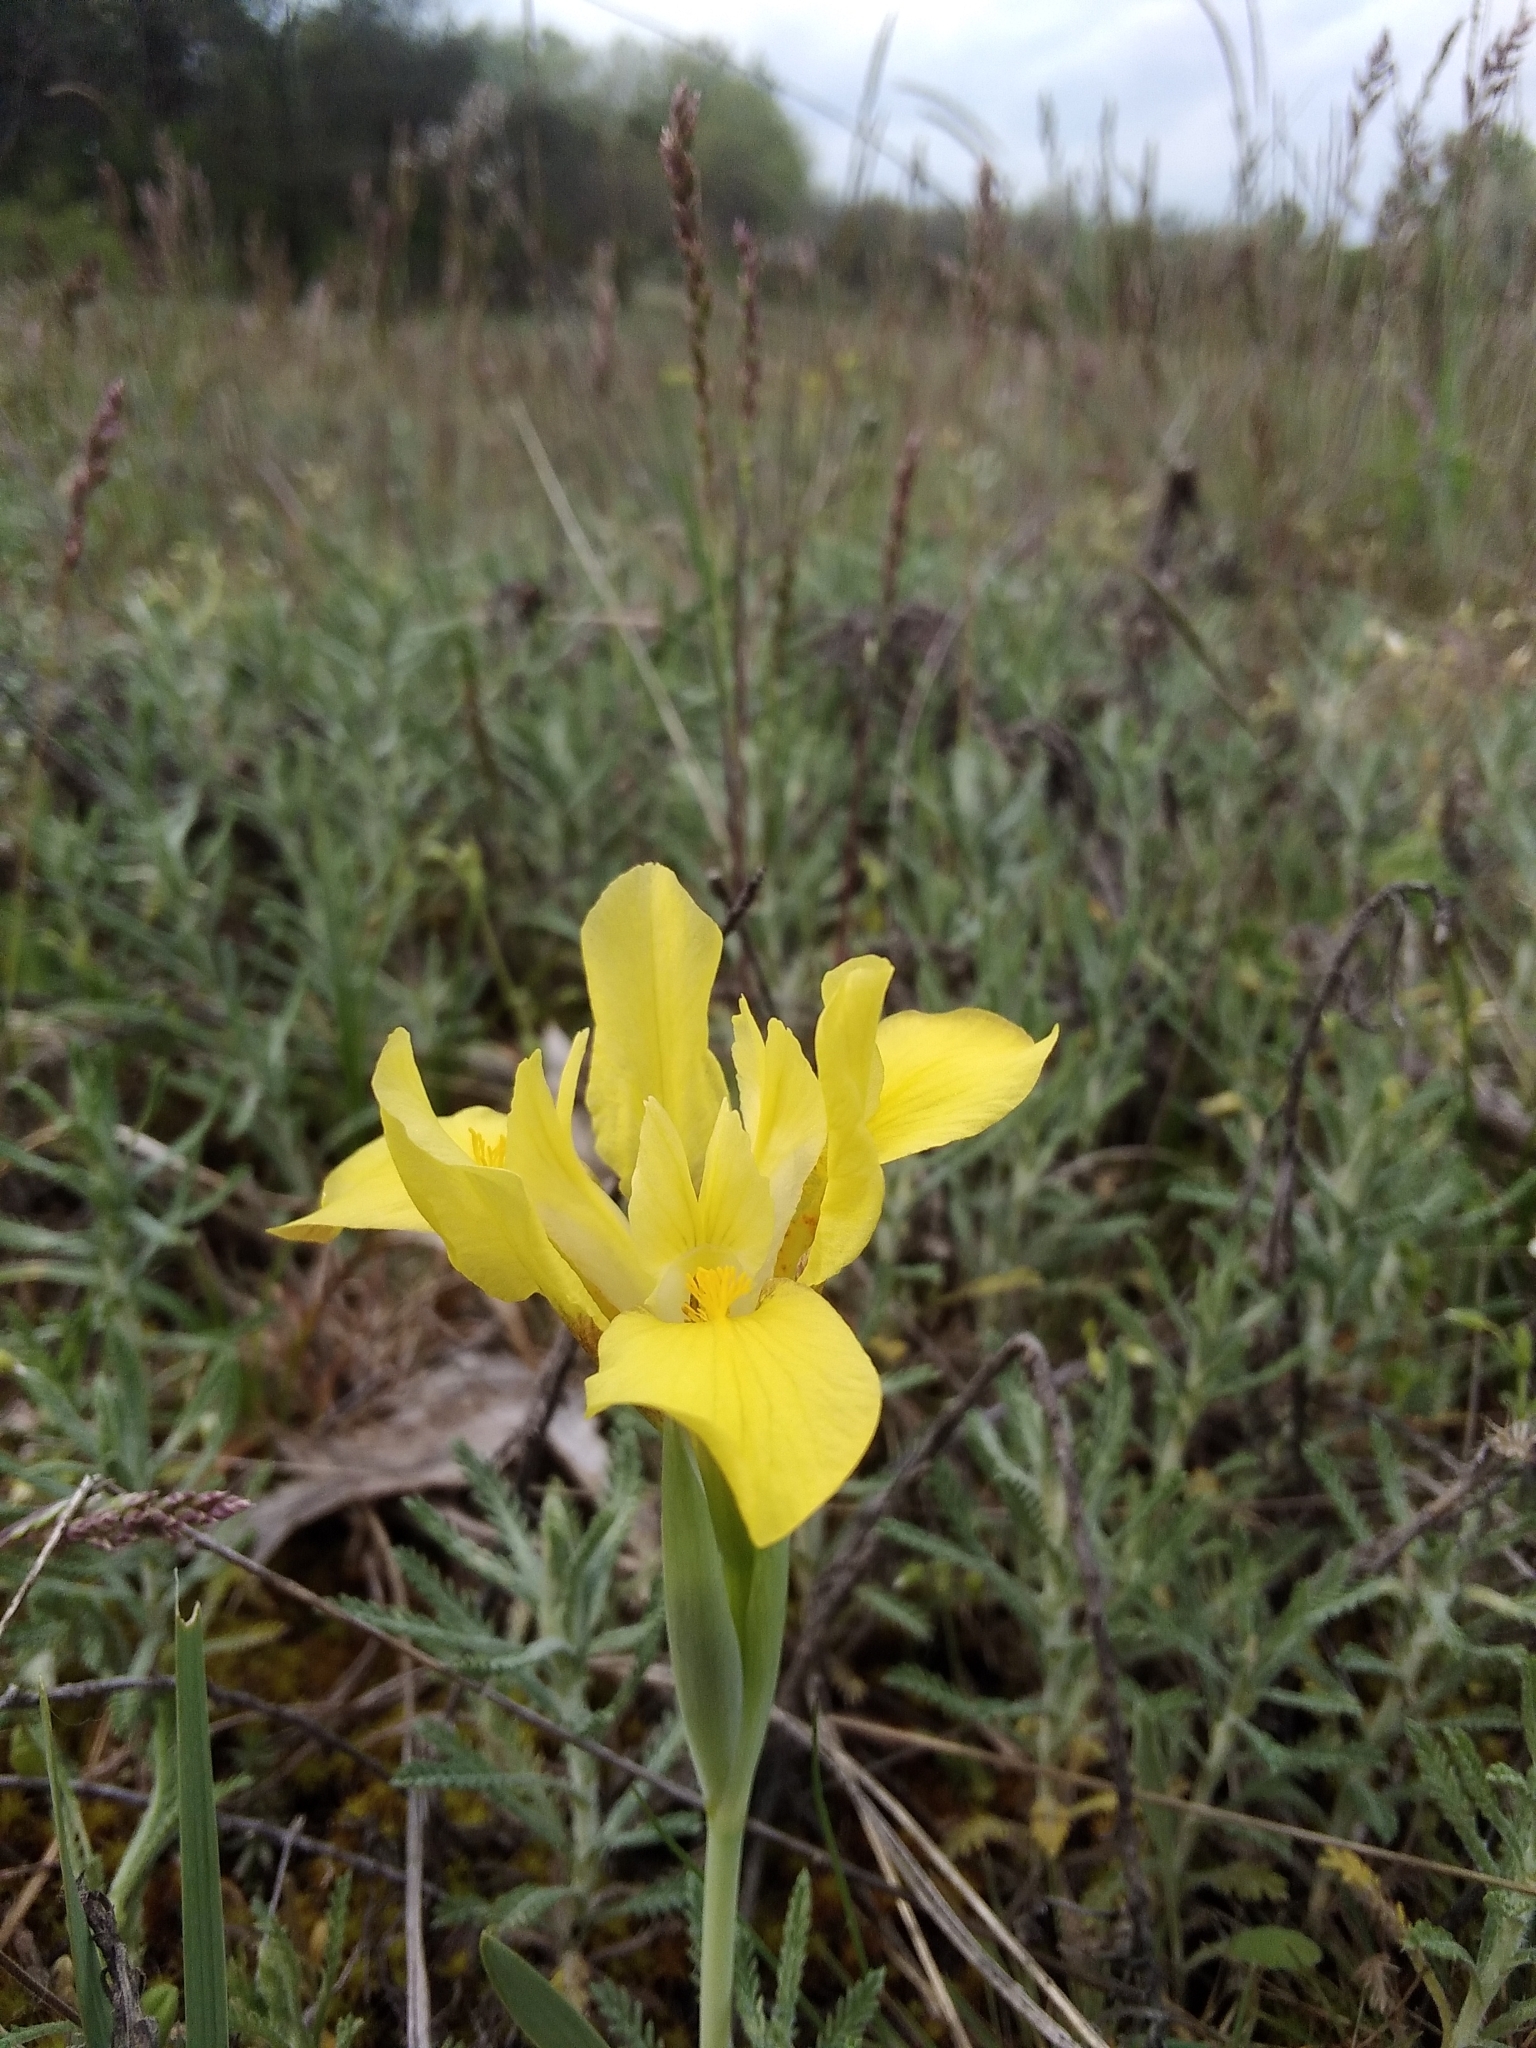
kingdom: Plantae
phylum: Tracheophyta
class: Liliopsida
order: Asparagales
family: Iridaceae
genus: Iris
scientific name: Iris arenaria
